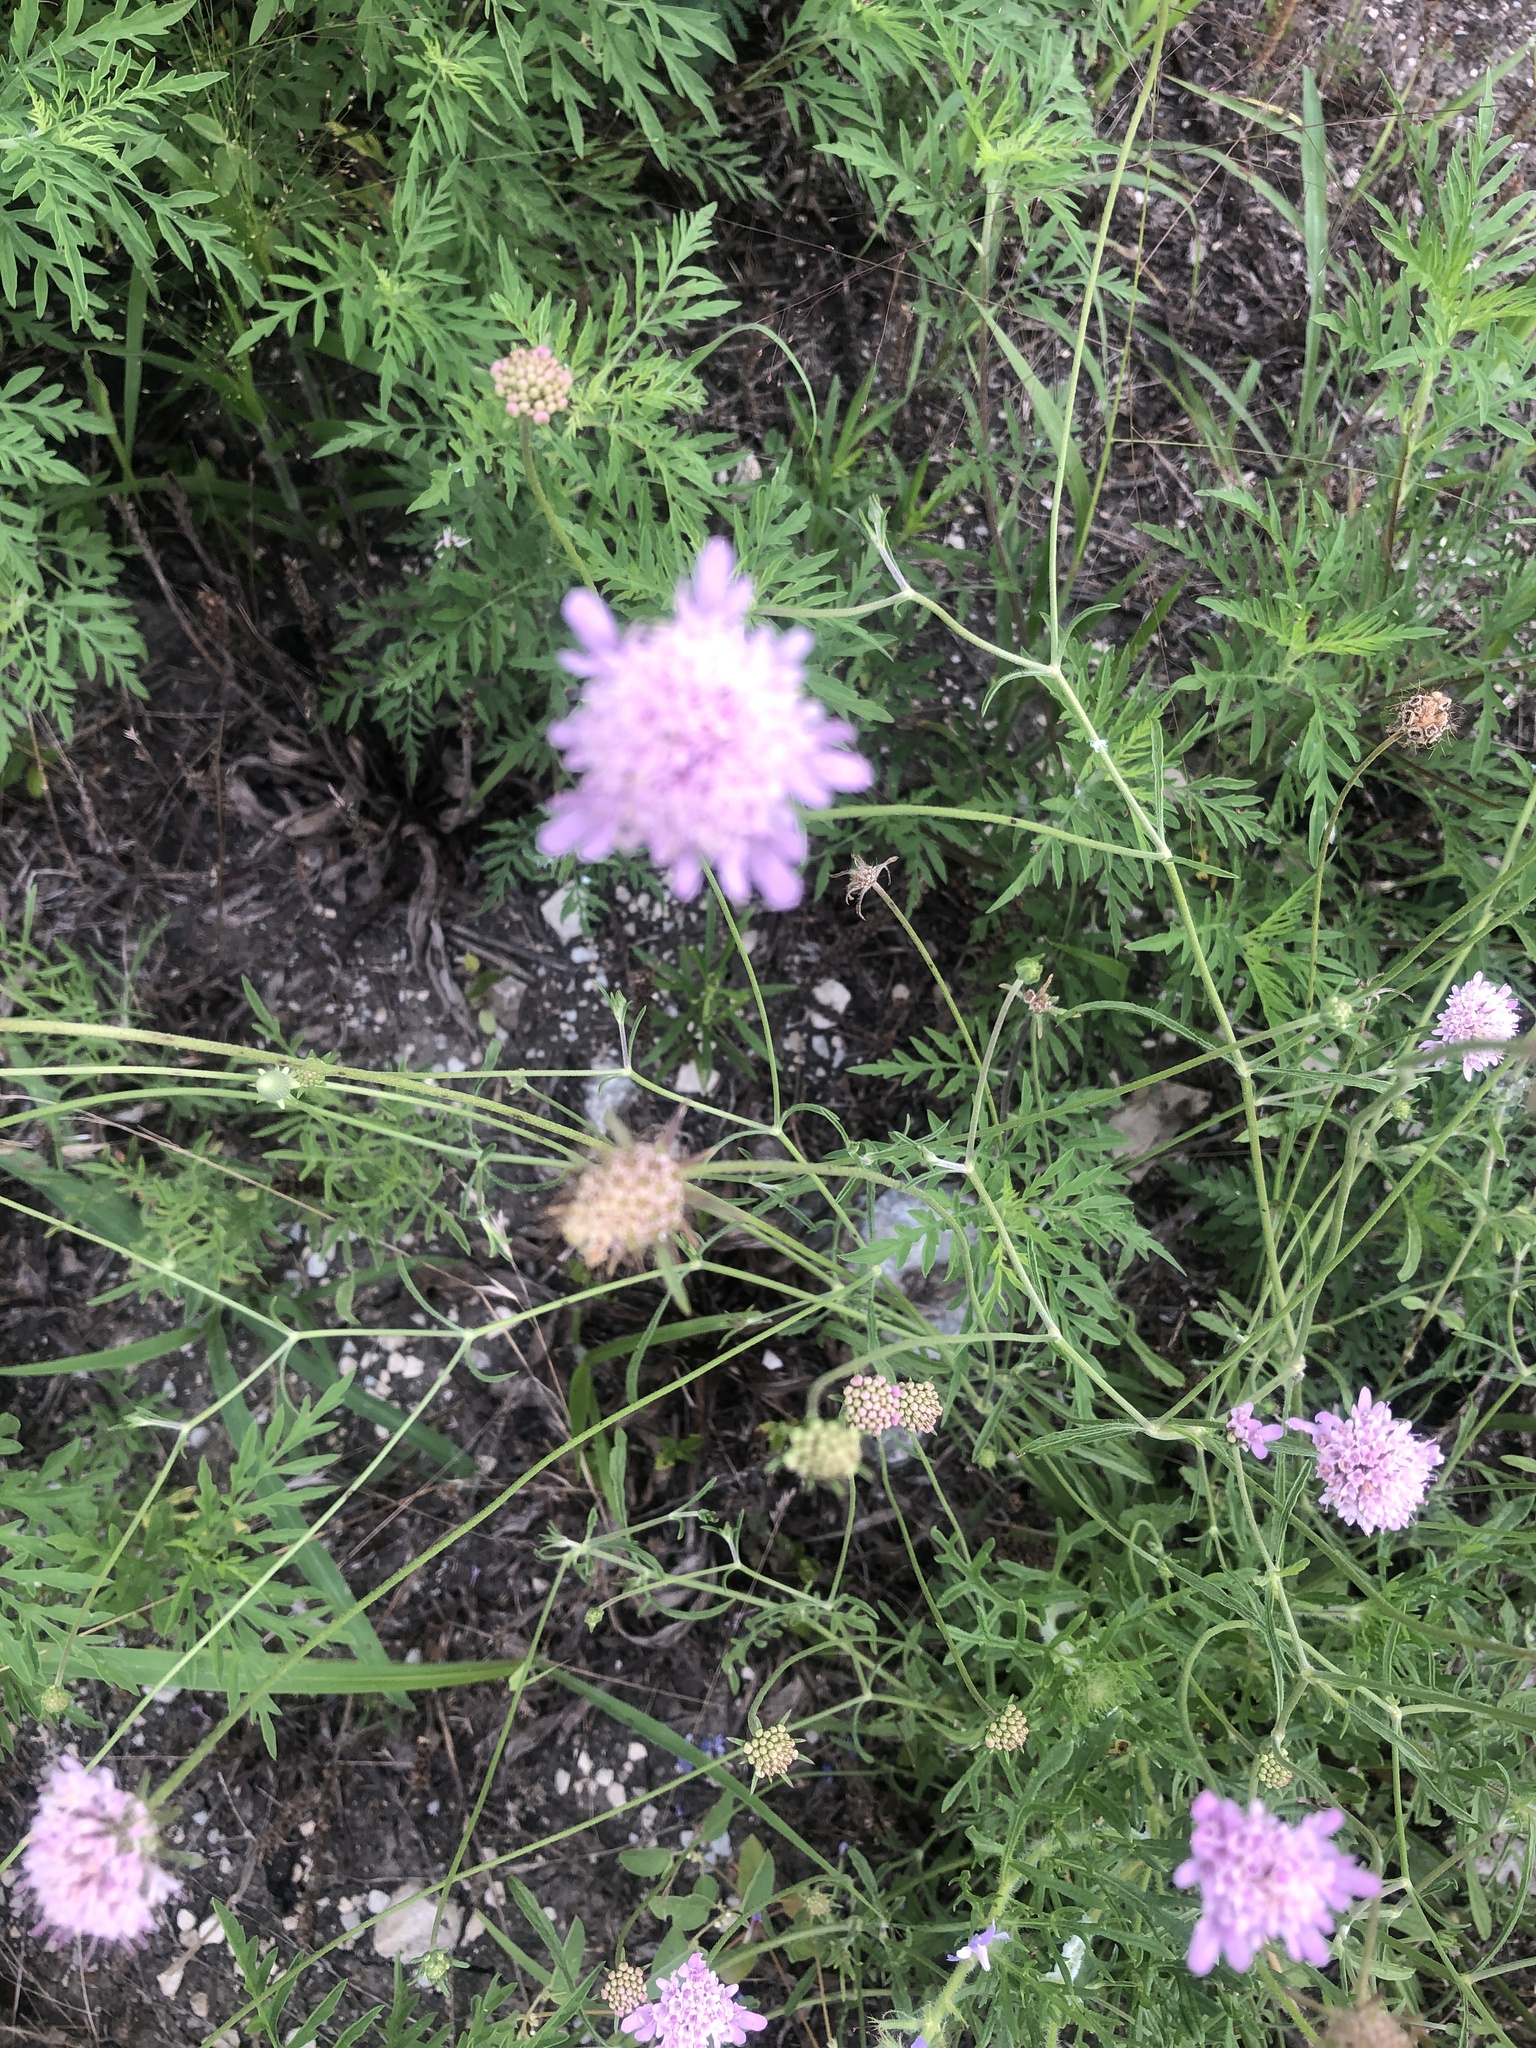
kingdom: Plantae
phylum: Tracheophyta
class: Magnoliopsida
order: Dipsacales
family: Caprifoliaceae
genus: Sixalix
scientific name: Sixalix atropurpurea
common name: Sweet scabious
